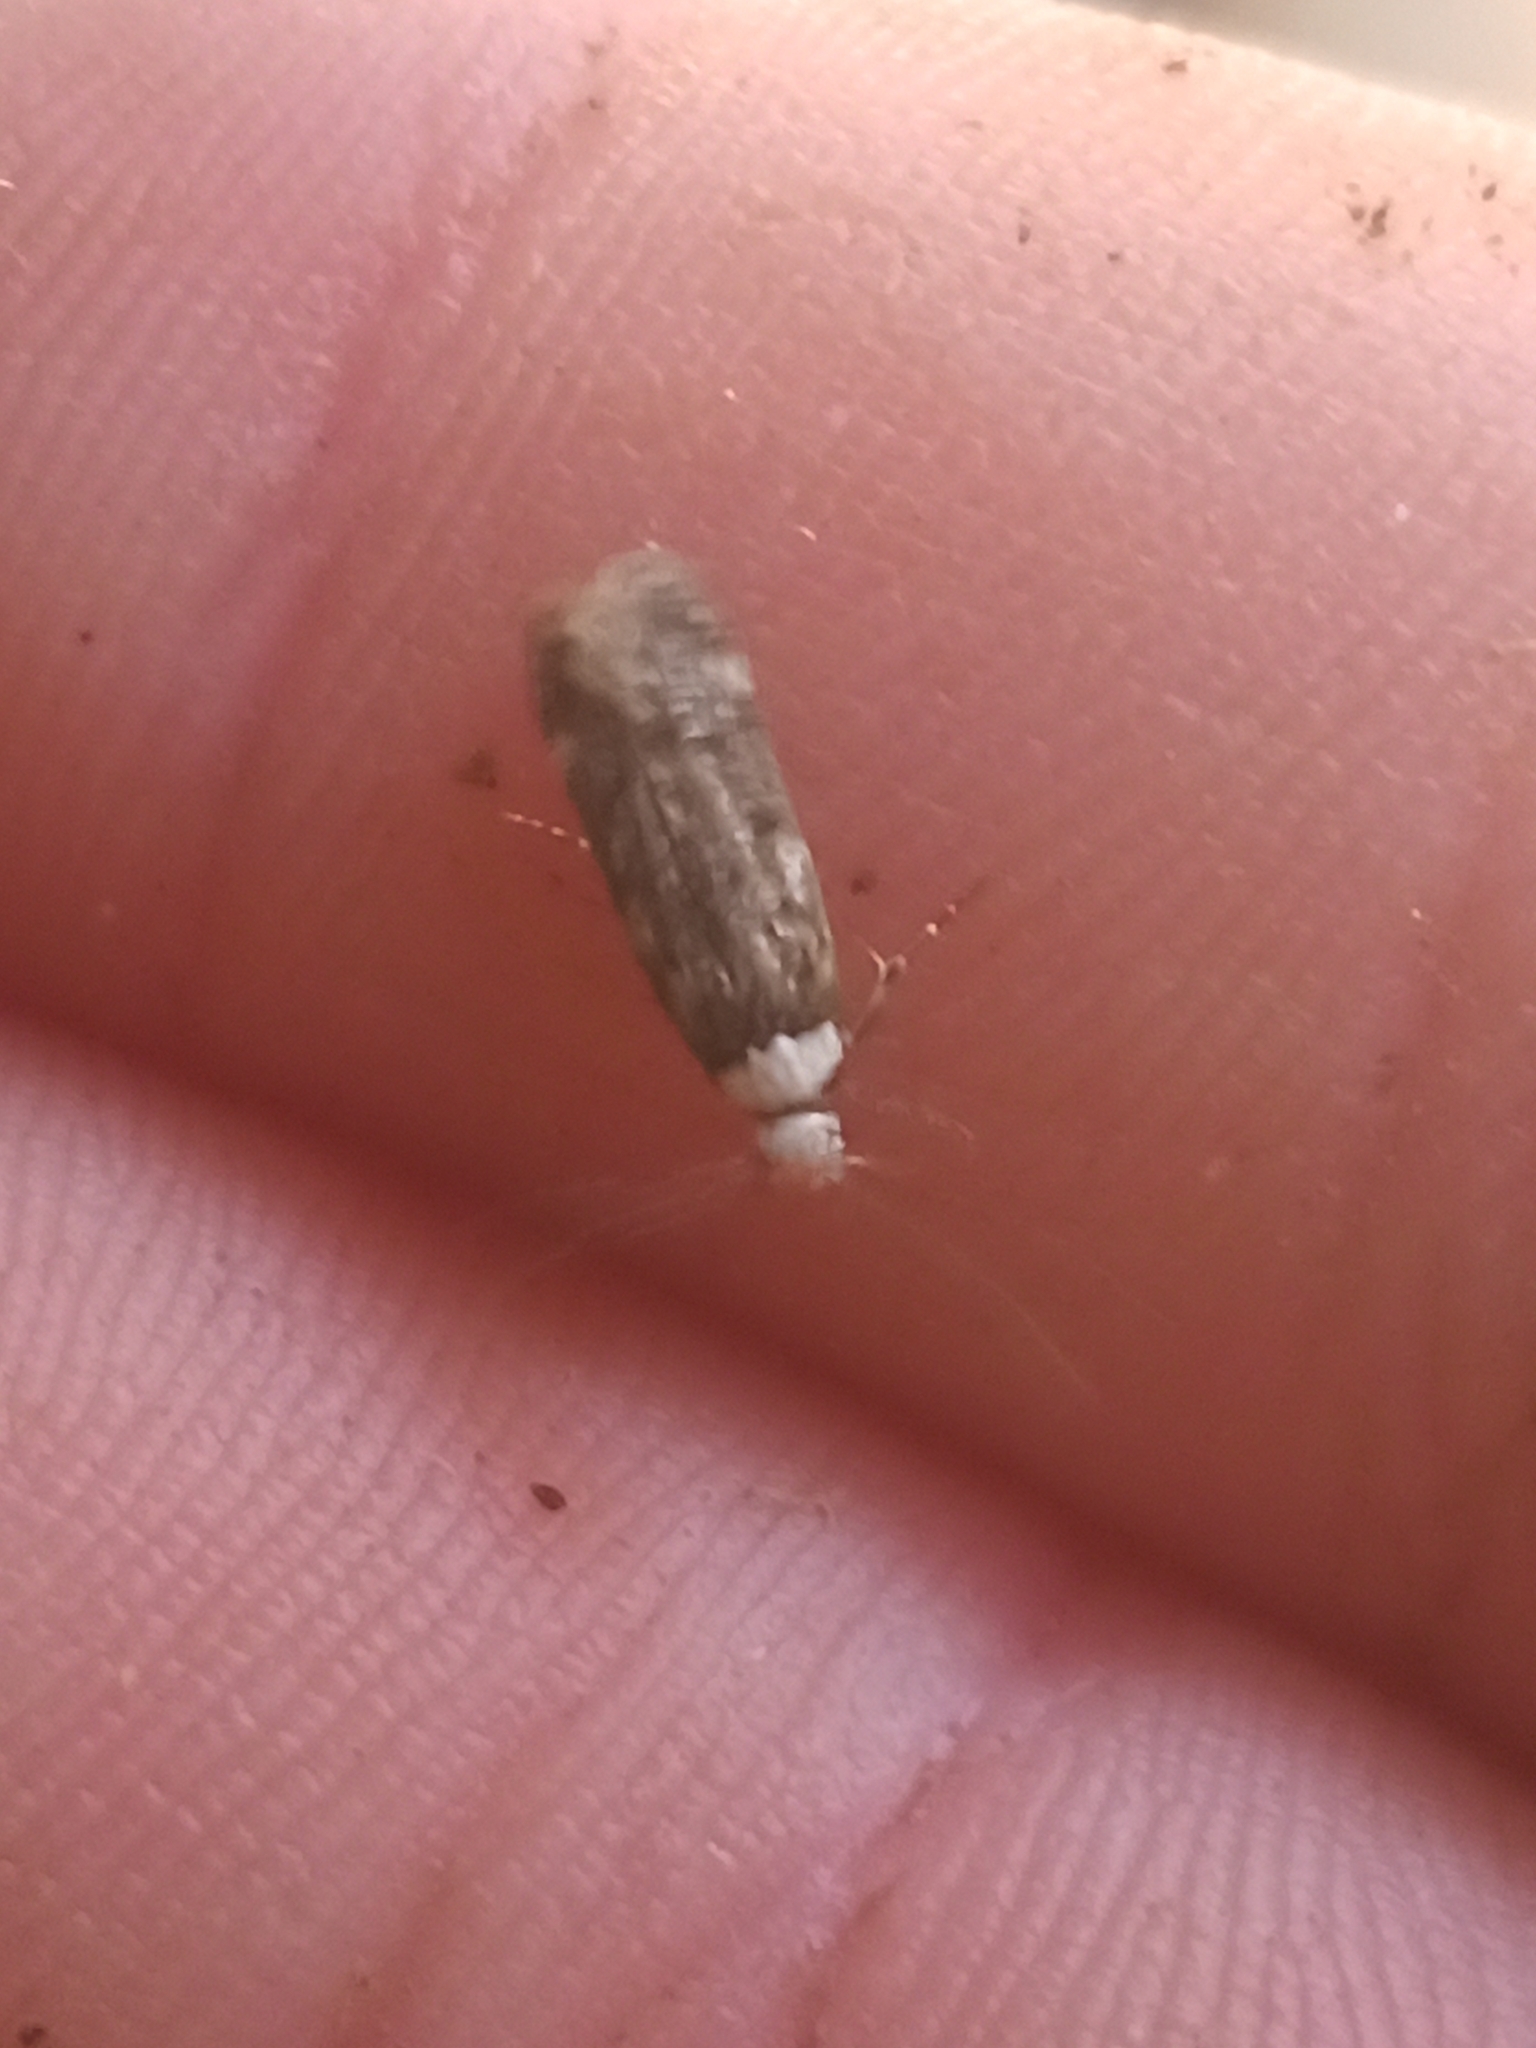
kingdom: Animalia
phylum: Arthropoda
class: Insecta
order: Lepidoptera
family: Oecophoridae
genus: Endrosis
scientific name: Endrosis sarcitrella
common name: White-shouldered house moth
